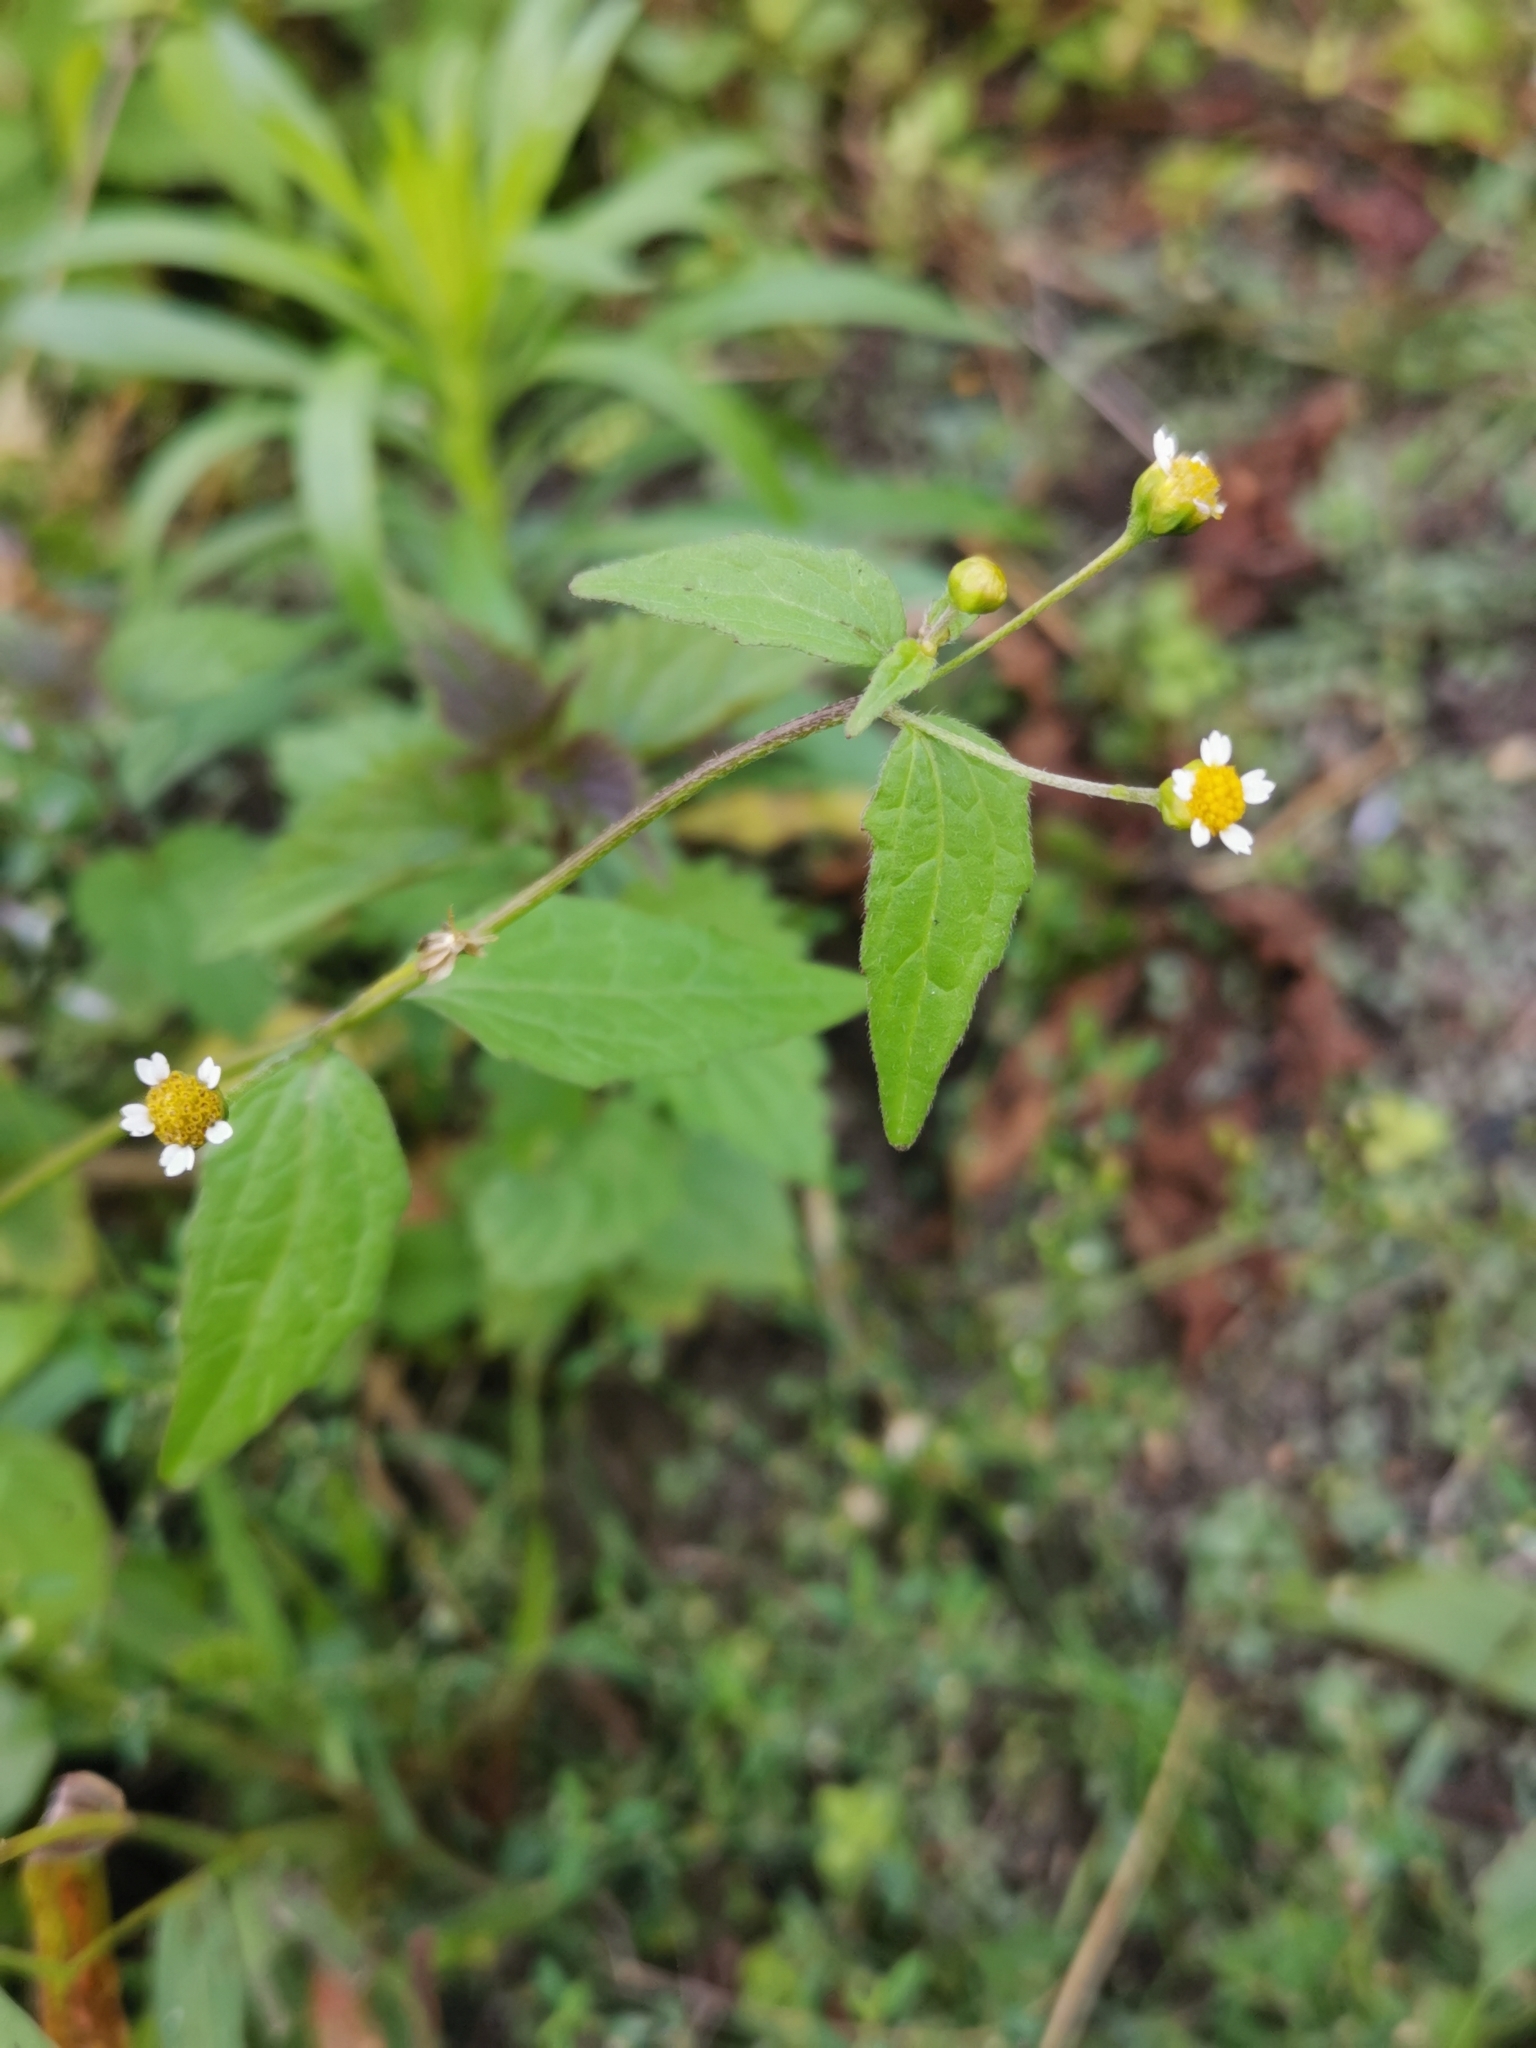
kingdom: Plantae
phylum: Tracheophyta
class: Magnoliopsida
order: Asterales
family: Asteraceae
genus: Galinsoga
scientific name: Galinsoga parviflora
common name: Gallant soldier
